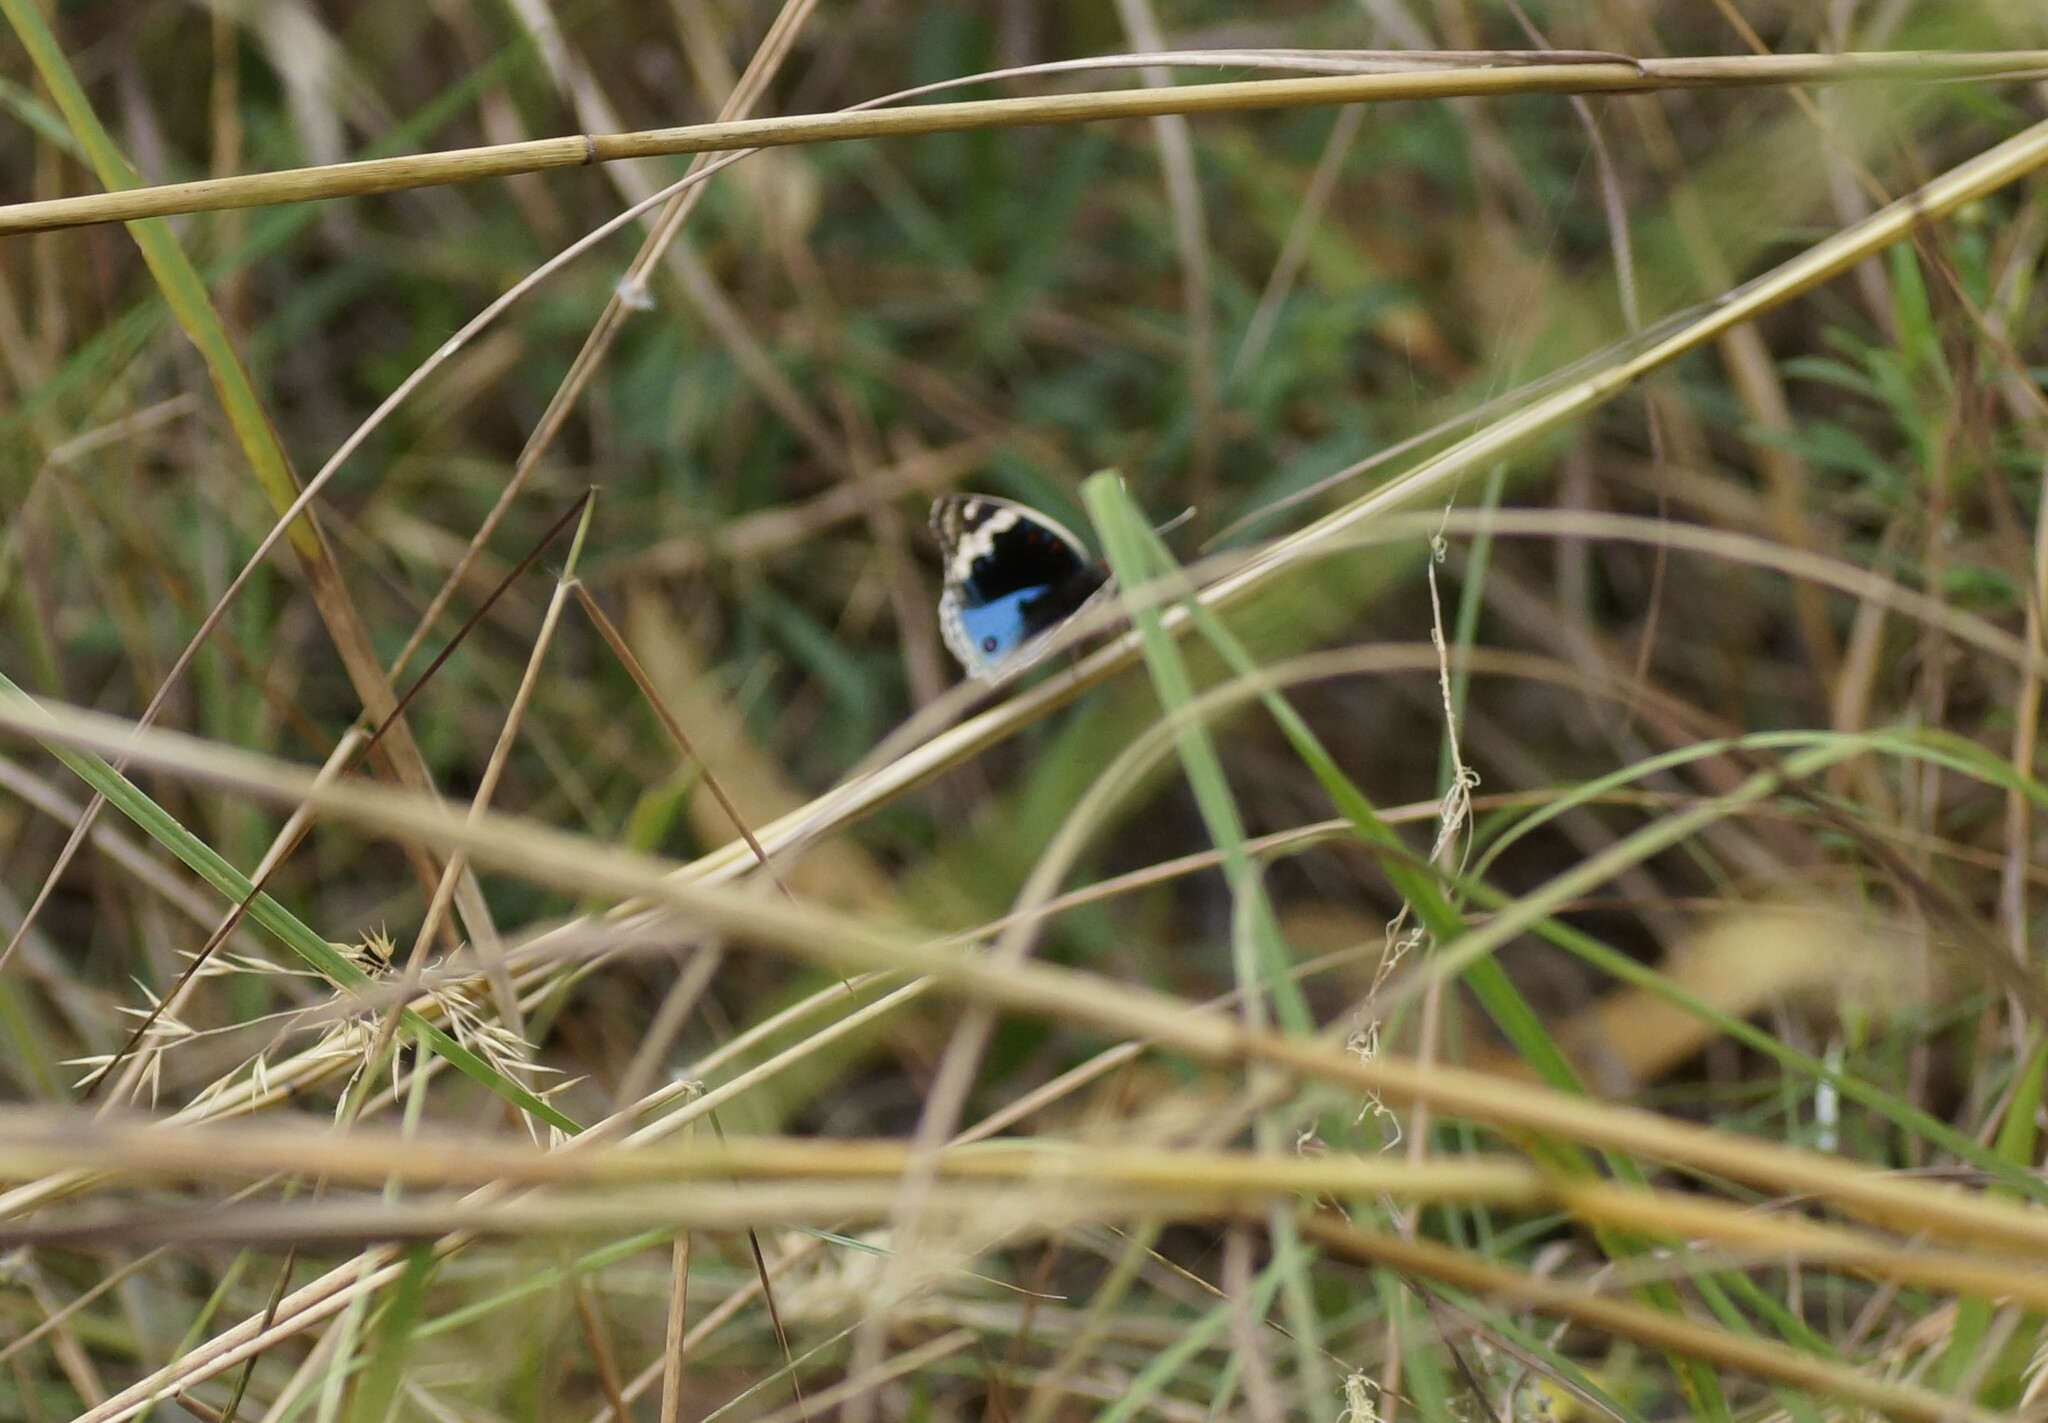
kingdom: Animalia
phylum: Arthropoda
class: Insecta
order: Lepidoptera
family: Nymphalidae
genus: Junonia
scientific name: Junonia orithya
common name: Blue pansy
